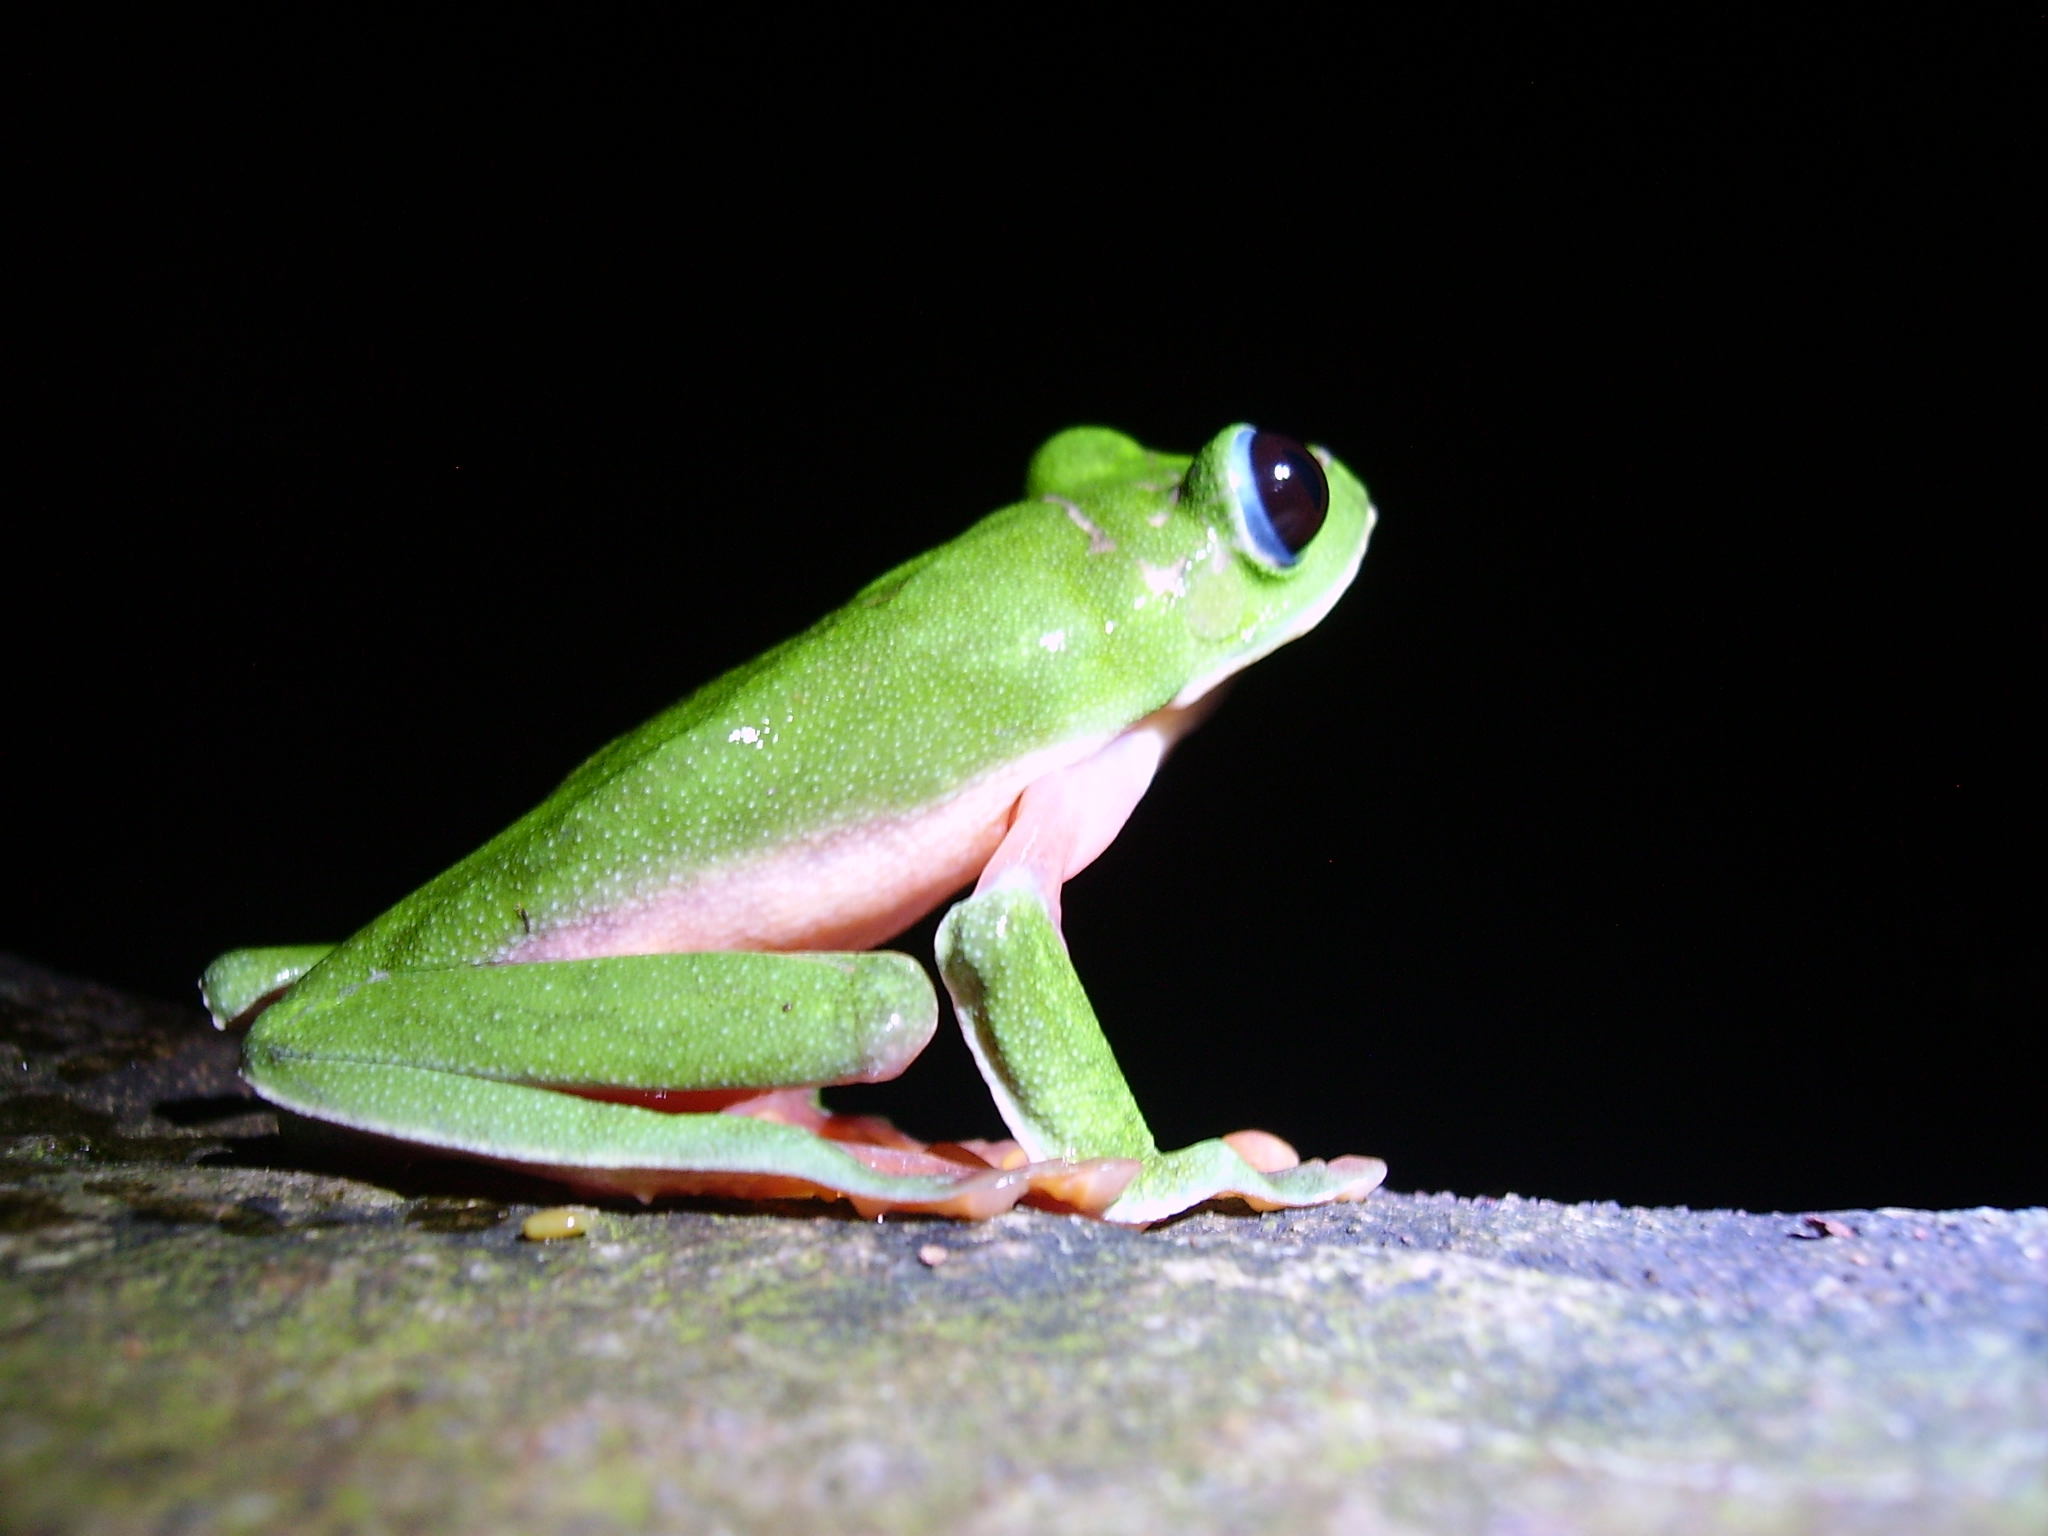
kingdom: Animalia
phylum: Chordata
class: Amphibia
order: Anura
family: Phyllomedusidae
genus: Agalychnis
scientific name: Agalychnis moreletii
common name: Black-eyed leaf frog
